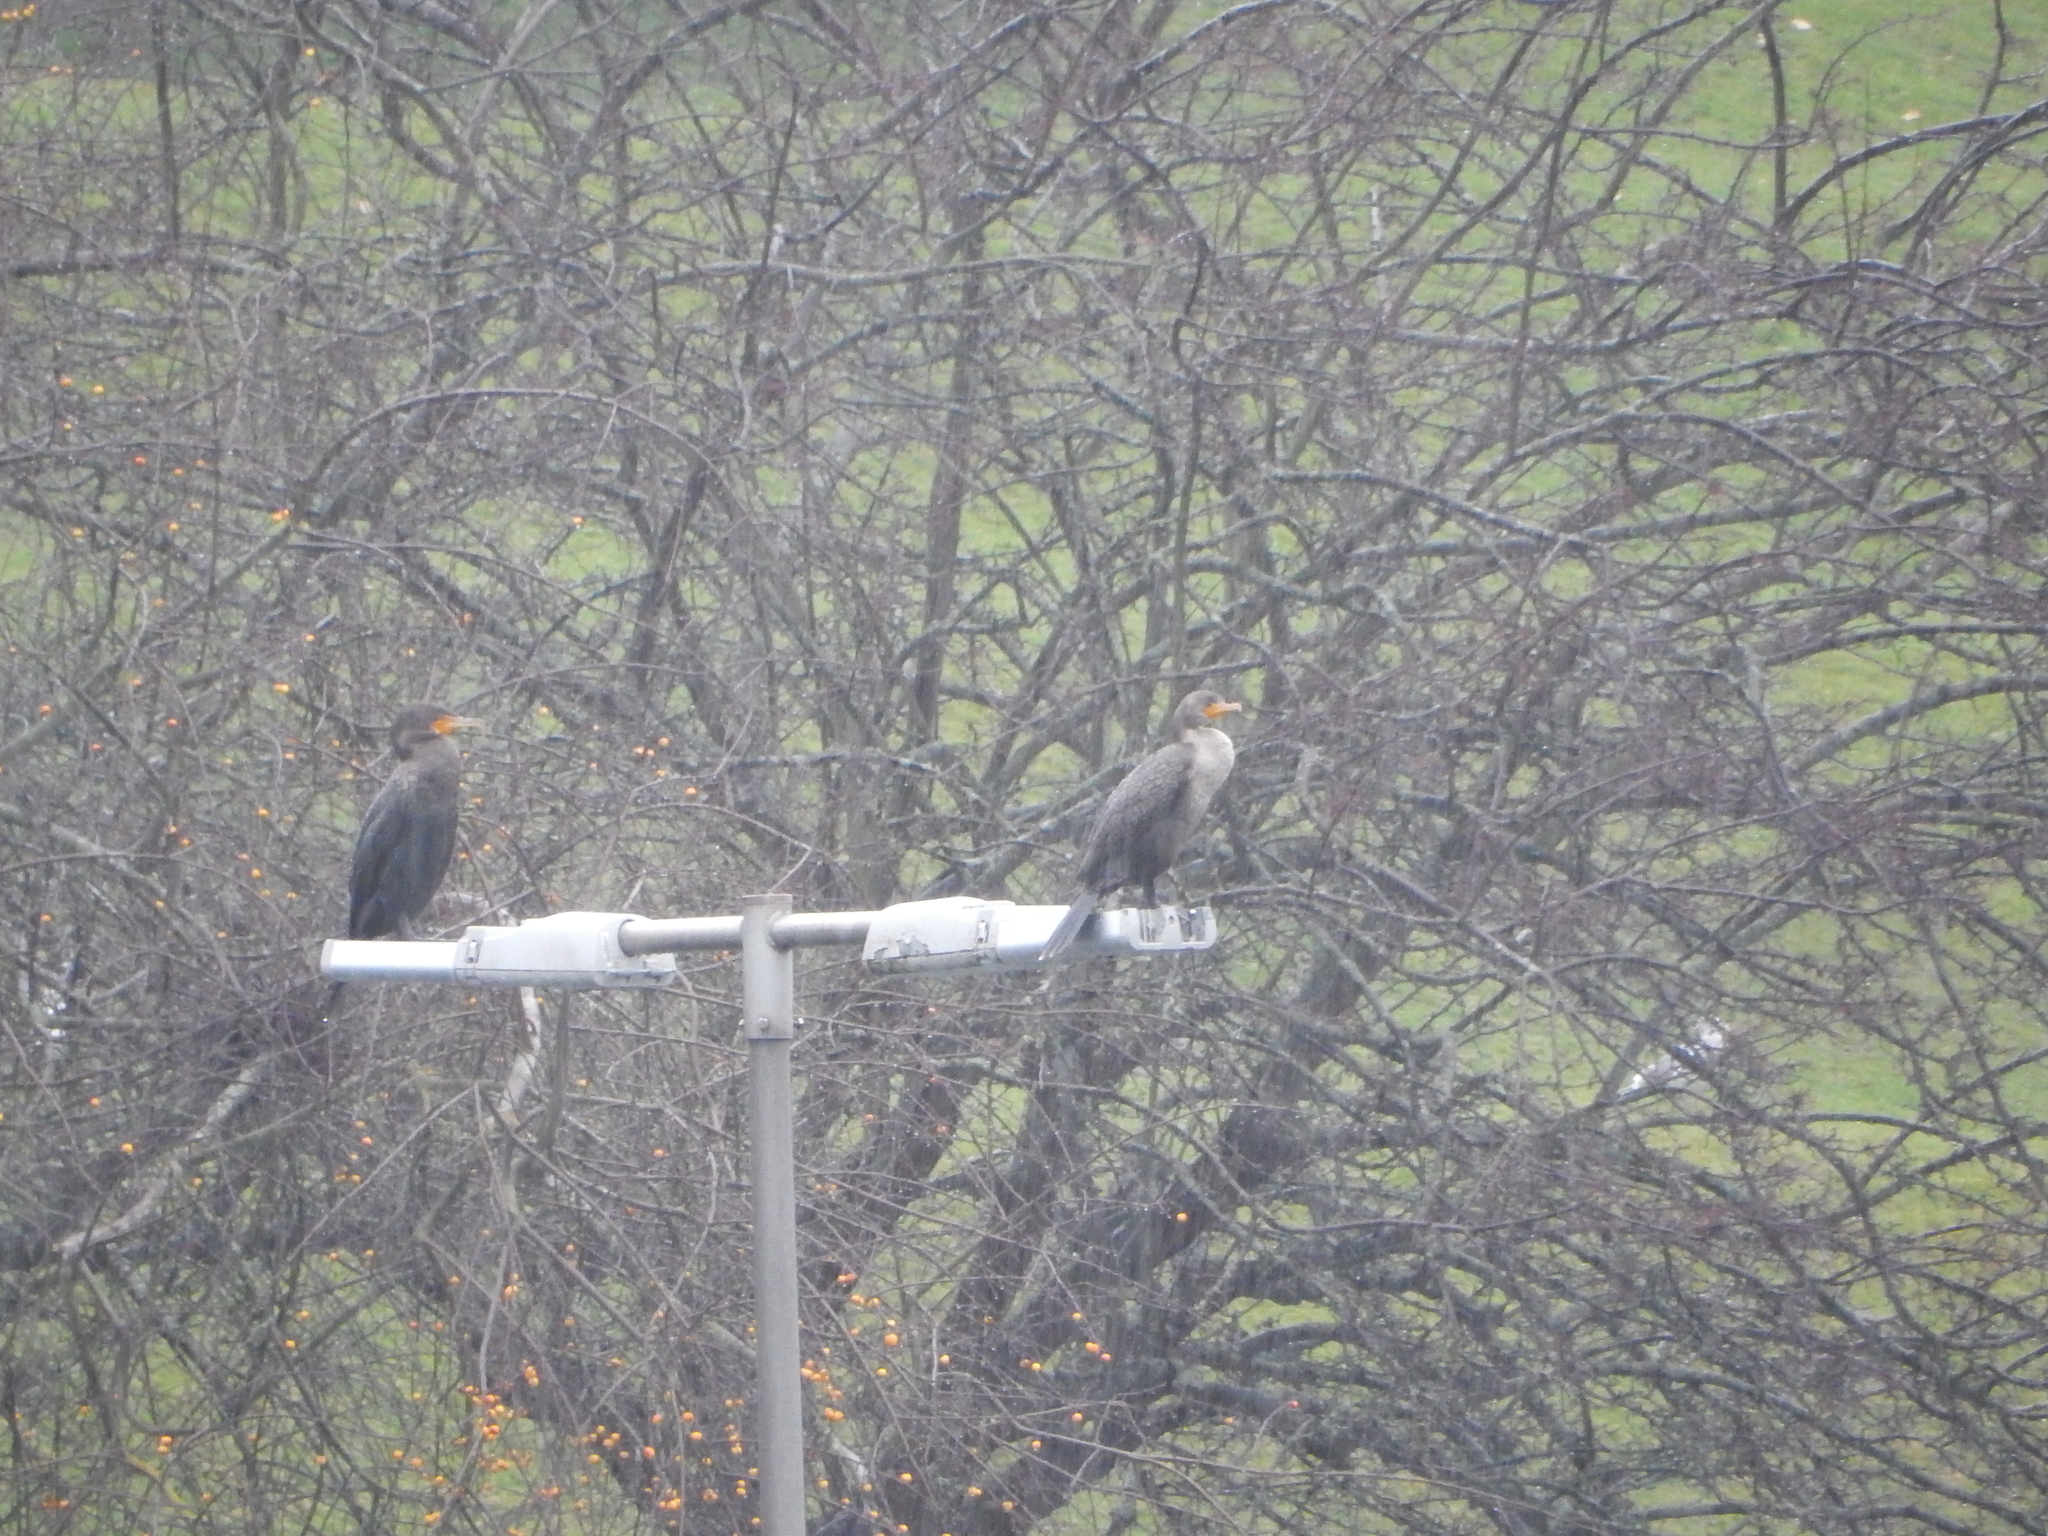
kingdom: Animalia
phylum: Chordata
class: Aves
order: Suliformes
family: Phalacrocoracidae
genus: Phalacrocorax
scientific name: Phalacrocorax auritus
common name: Double-crested cormorant
